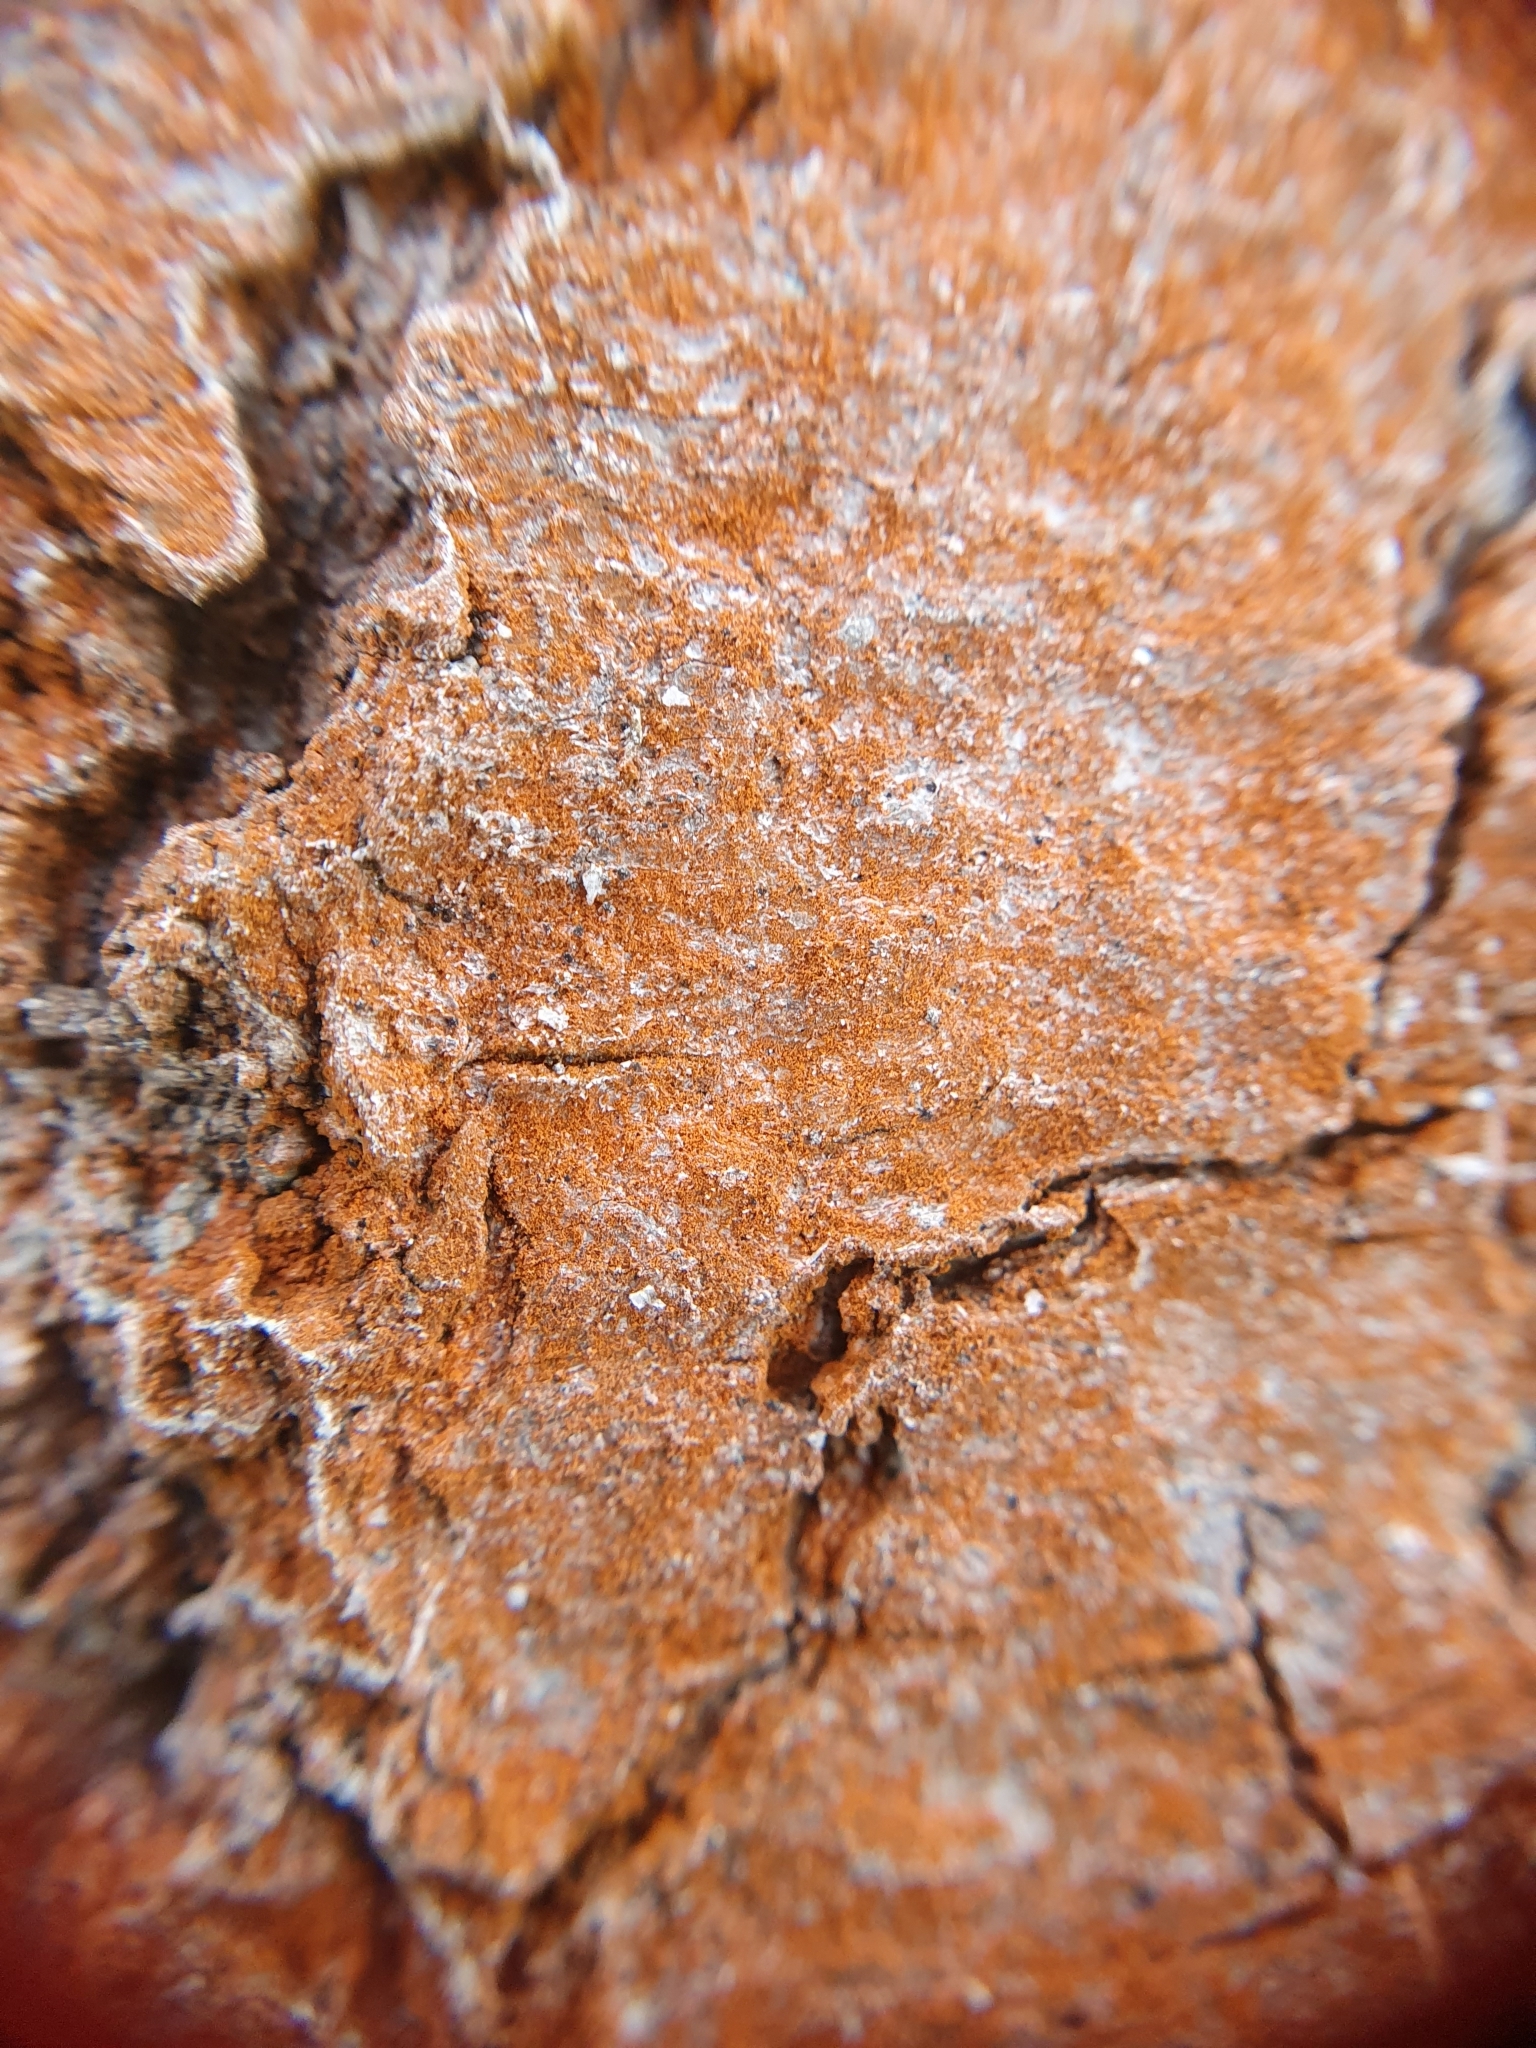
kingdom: Plantae
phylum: Chlorophyta
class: Ulvophyceae
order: Trentepohliales
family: Trentepohliaceae
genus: Trentepohlia
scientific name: Trentepohlia umbrina
